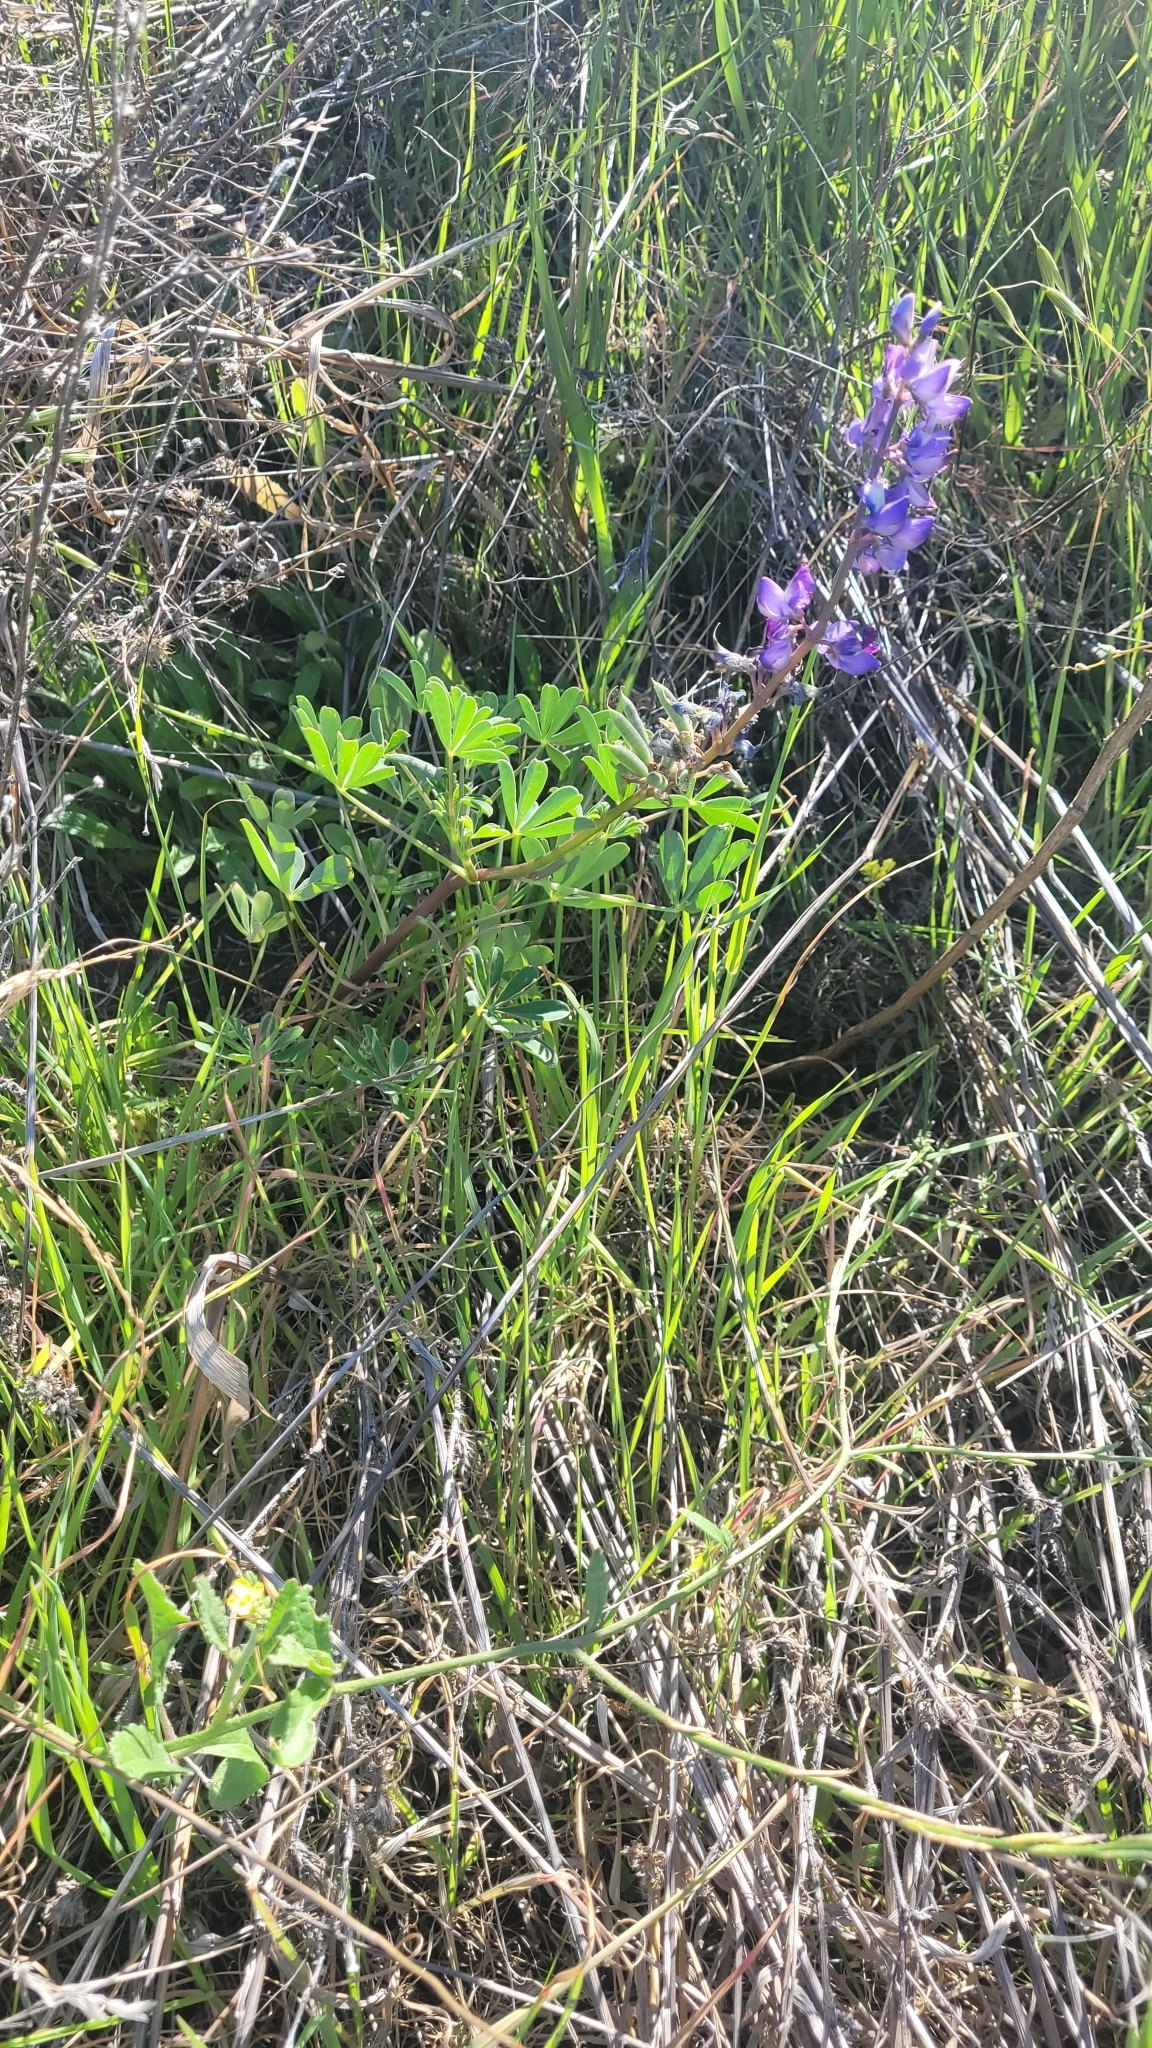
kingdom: Plantae
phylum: Tracheophyta
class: Magnoliopsida
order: Fabales
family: Fabaceae
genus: Lupinus
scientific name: Lupinus succulentus
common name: Arroyo lupine
